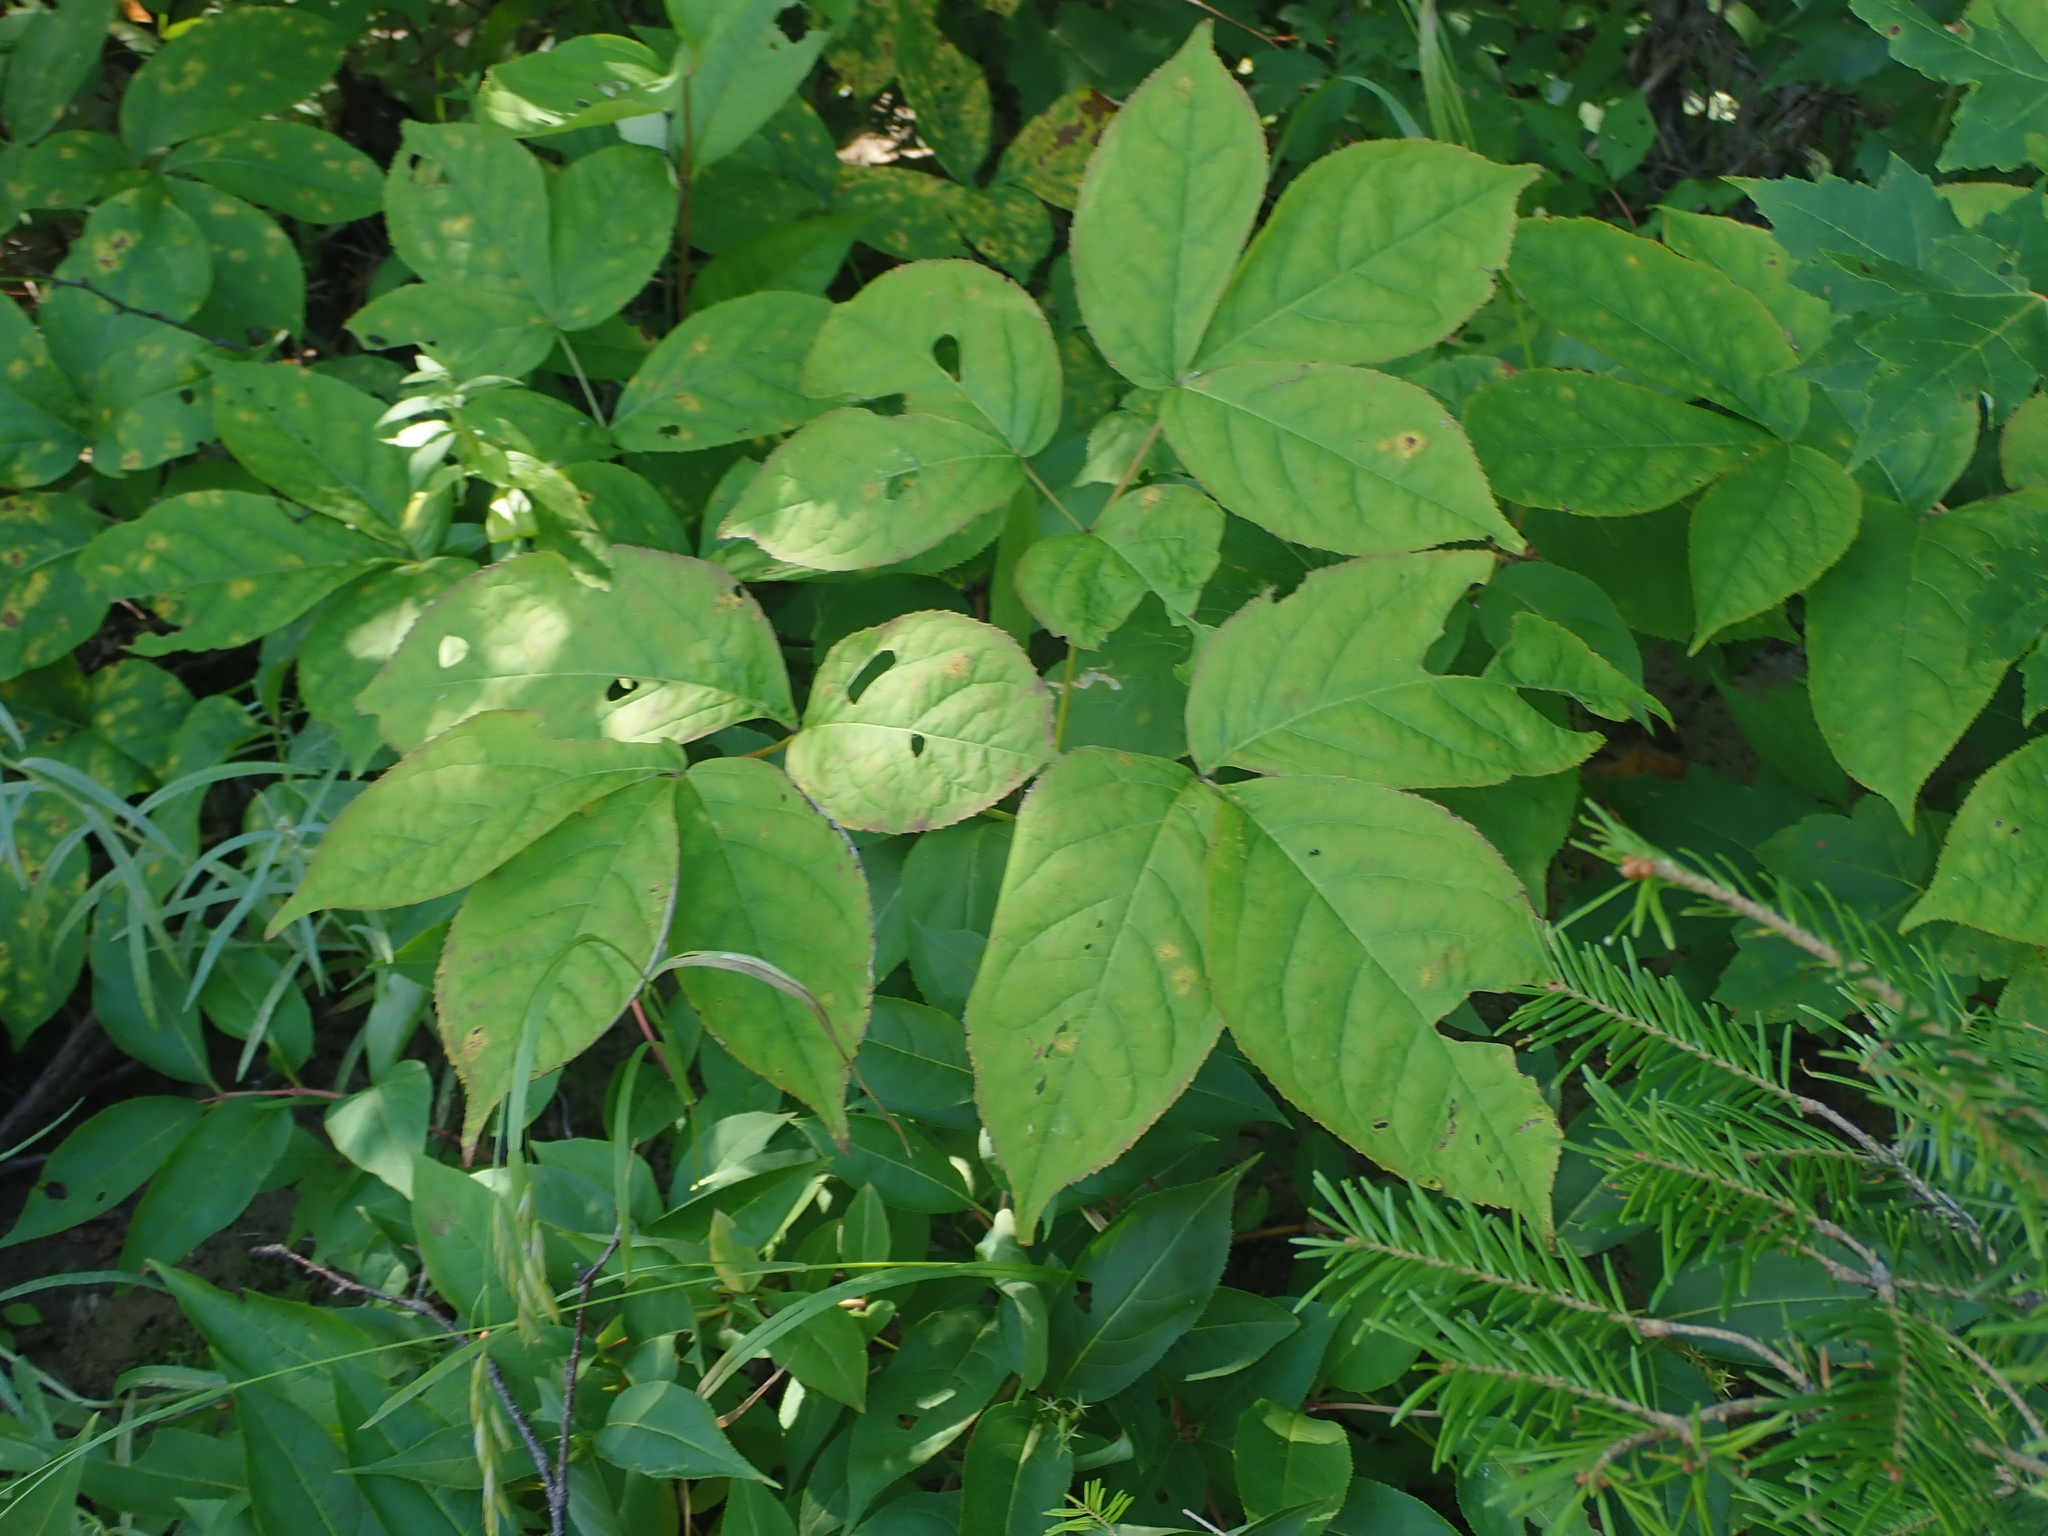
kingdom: Plantae
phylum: Tracheophyta
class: Magnoliopsida
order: Apiales
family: Araliaceae
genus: Aralia
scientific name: Aralia nudicaulis
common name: Wild sarsaparilla
